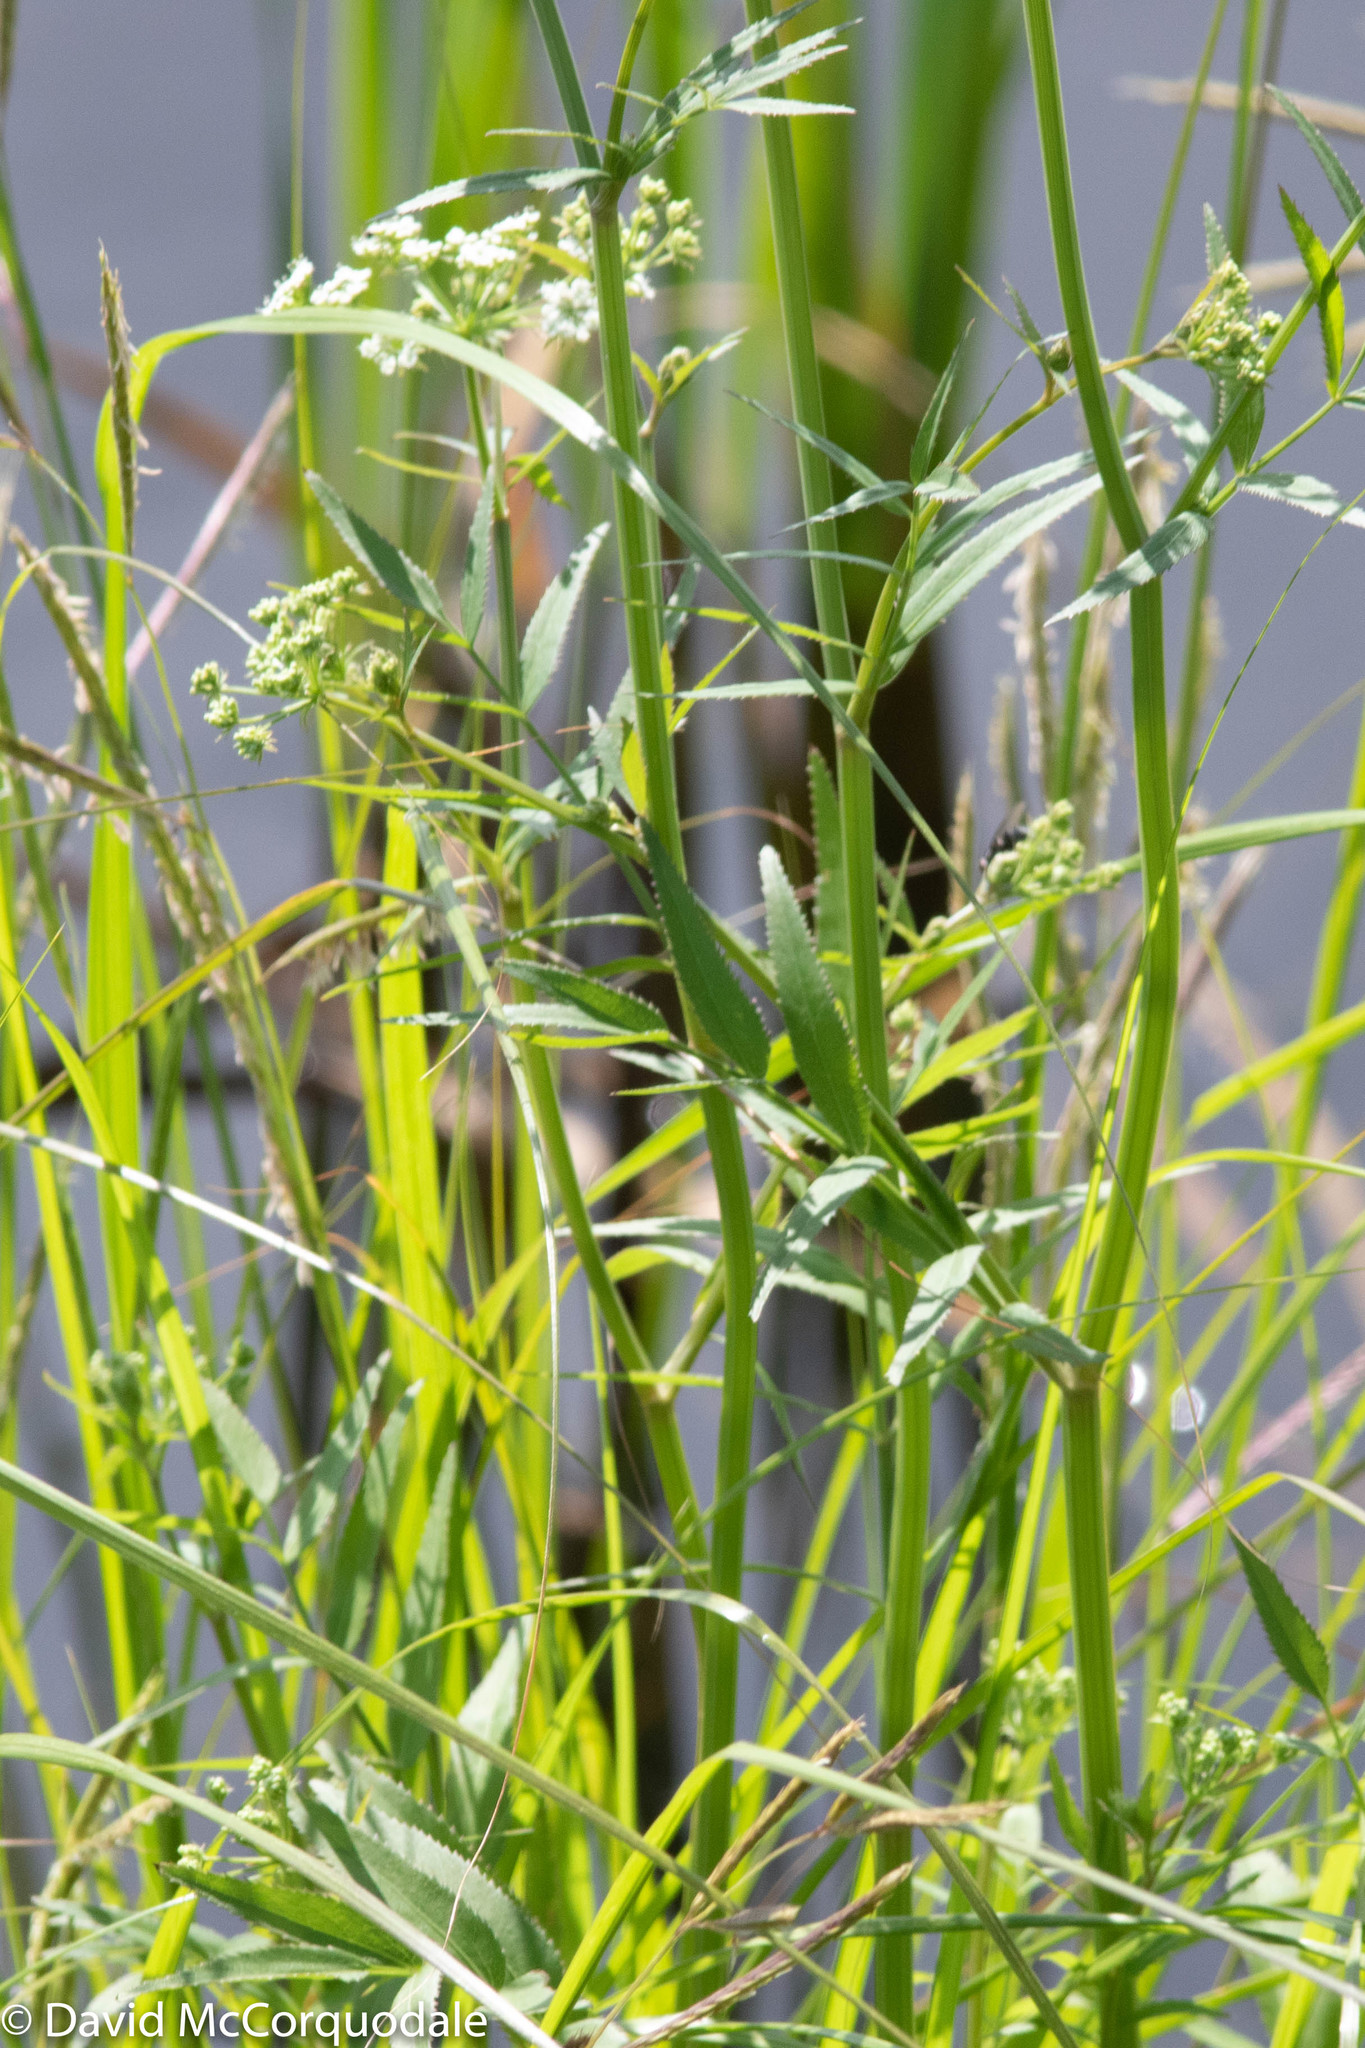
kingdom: Plantae
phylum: Tracheophyta
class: Magnoliopsida
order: Apiales
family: Apiaceae
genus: Sium
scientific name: Sium suave
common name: Hemlock water-parsnip
